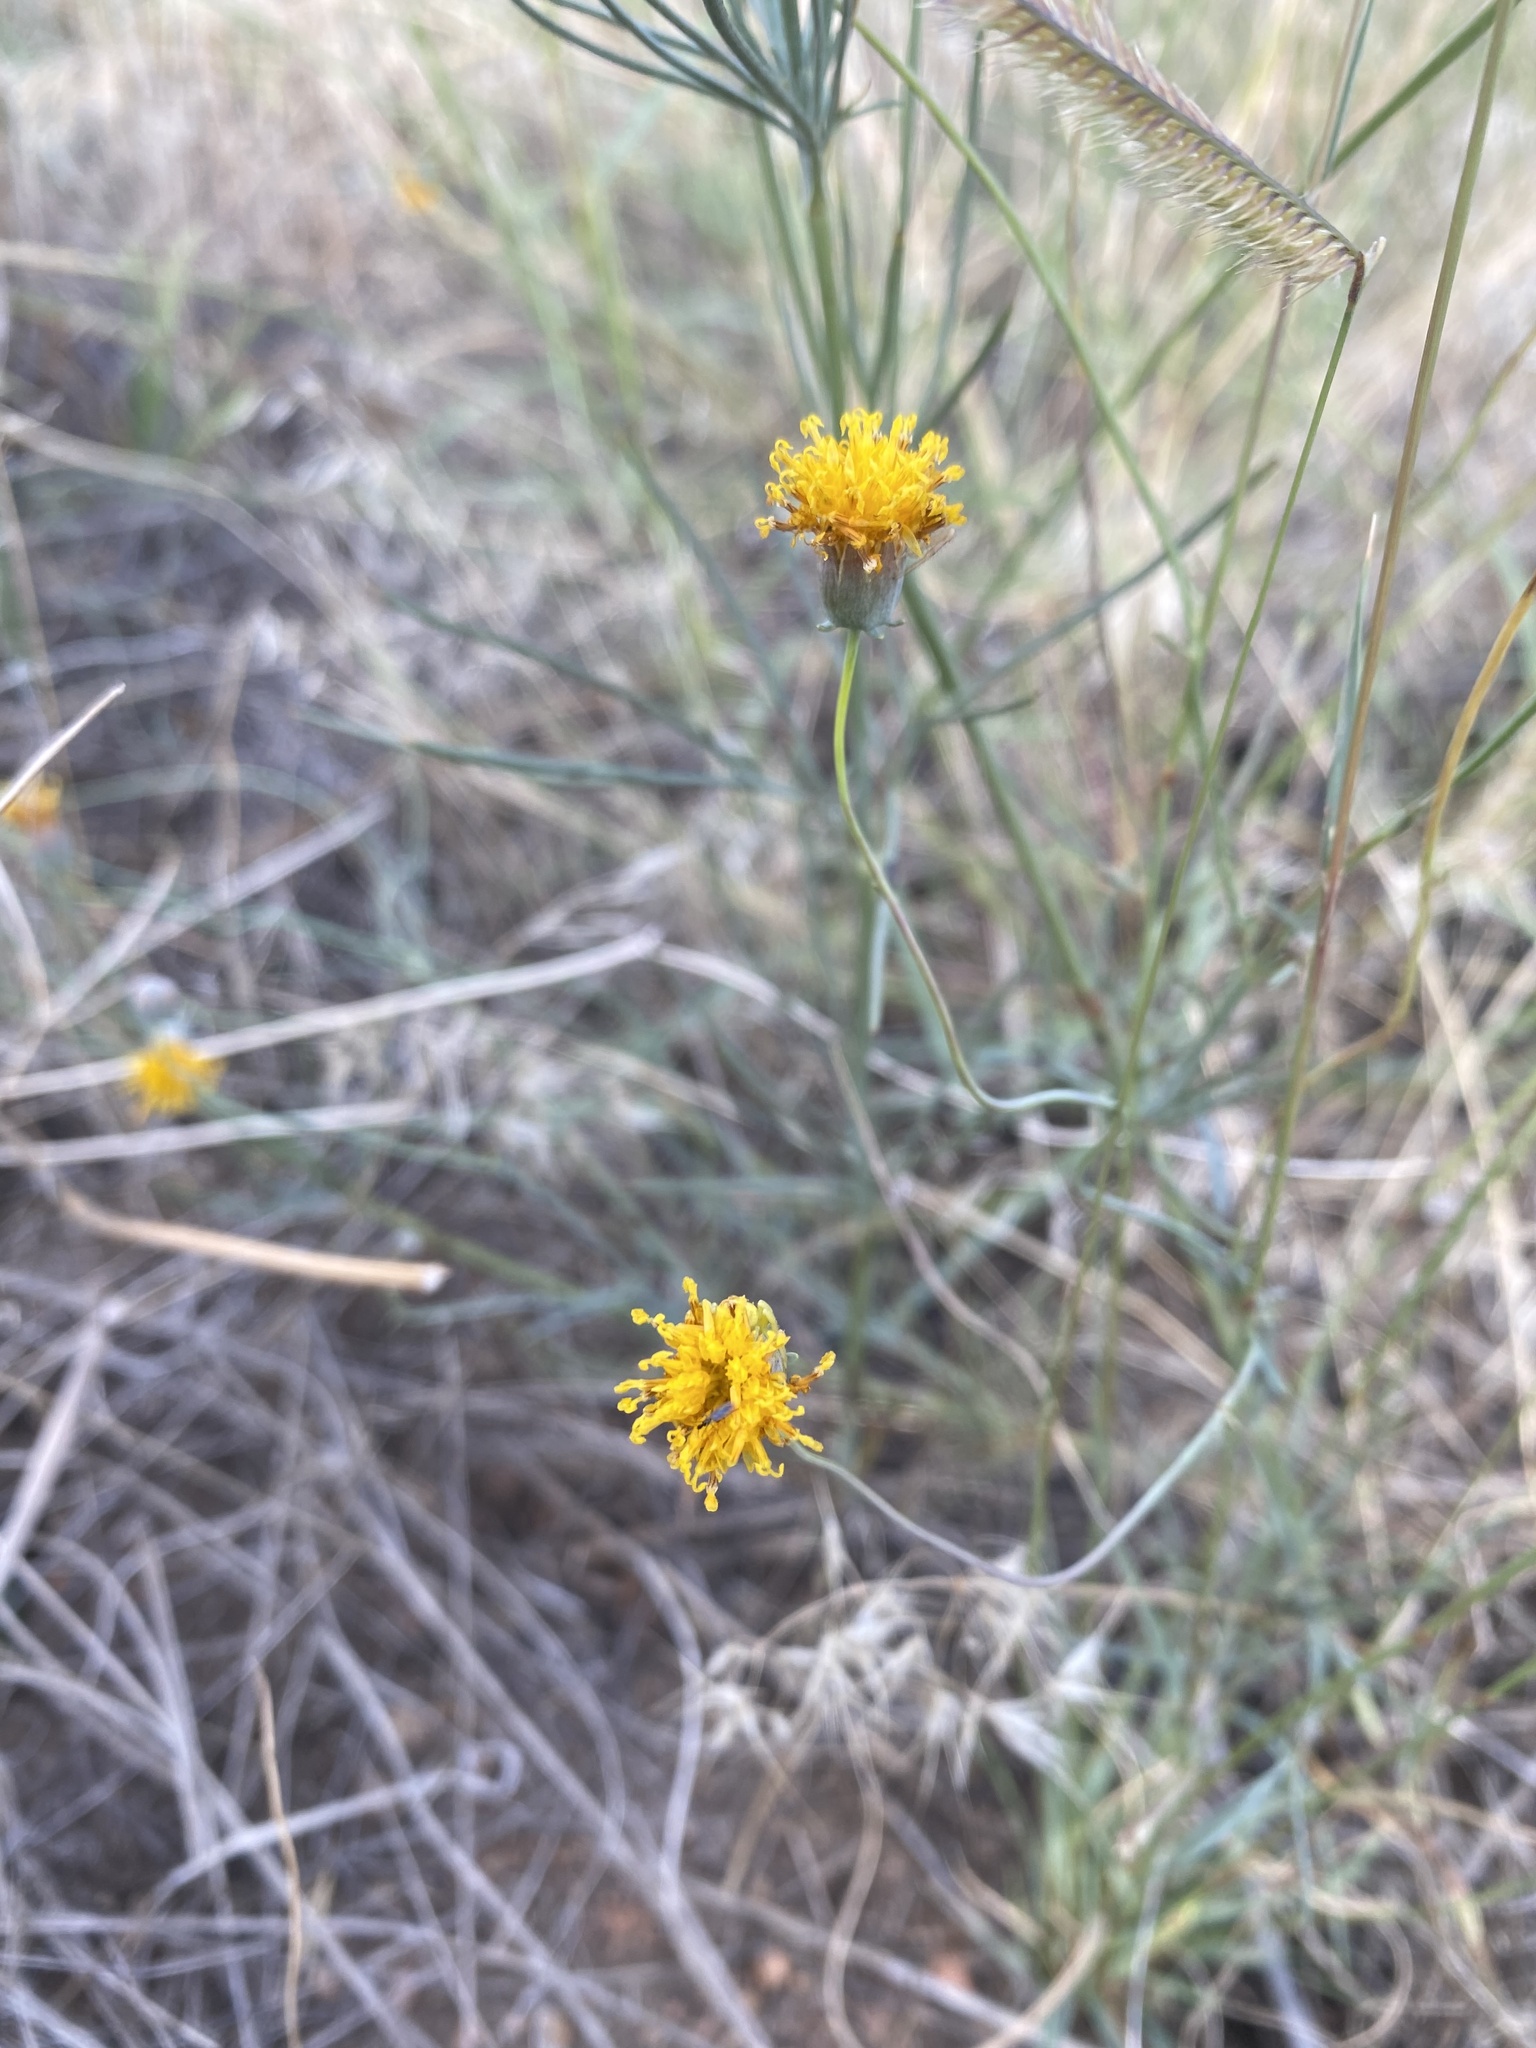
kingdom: Plantae
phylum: Tracheophyta
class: Magnoliopsida
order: Asterales
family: Asteraceae
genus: Thelesperma
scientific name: Thelesperma megapotamicum
